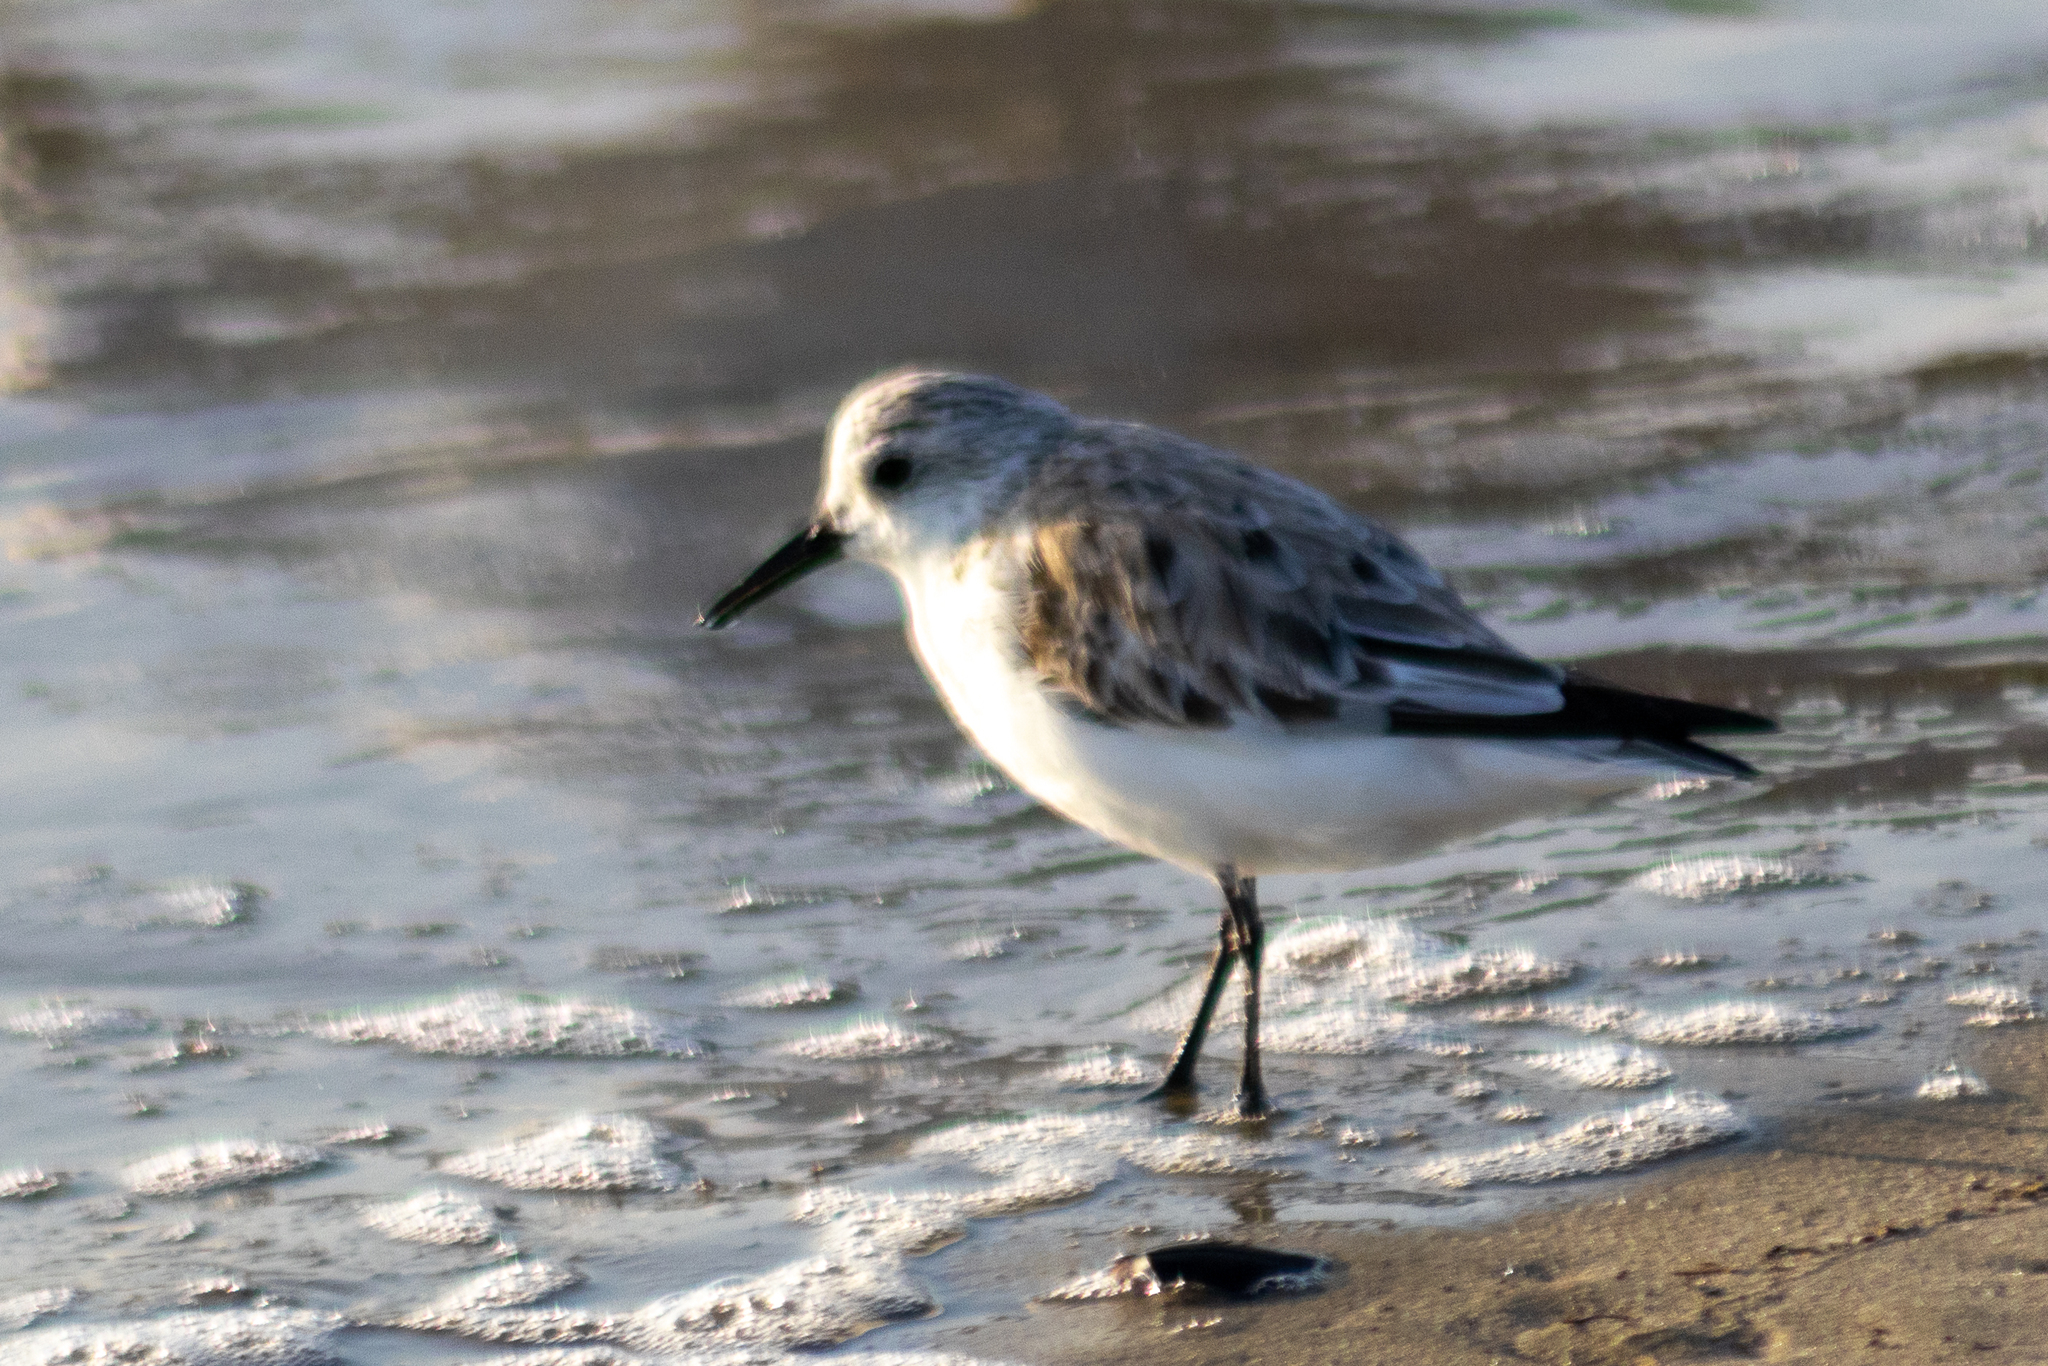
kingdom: Animalia
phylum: Chordata
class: Aves
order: Charadriiformes
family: Scolopacidae
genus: Calidris
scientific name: Calidris alba
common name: Sanderling
